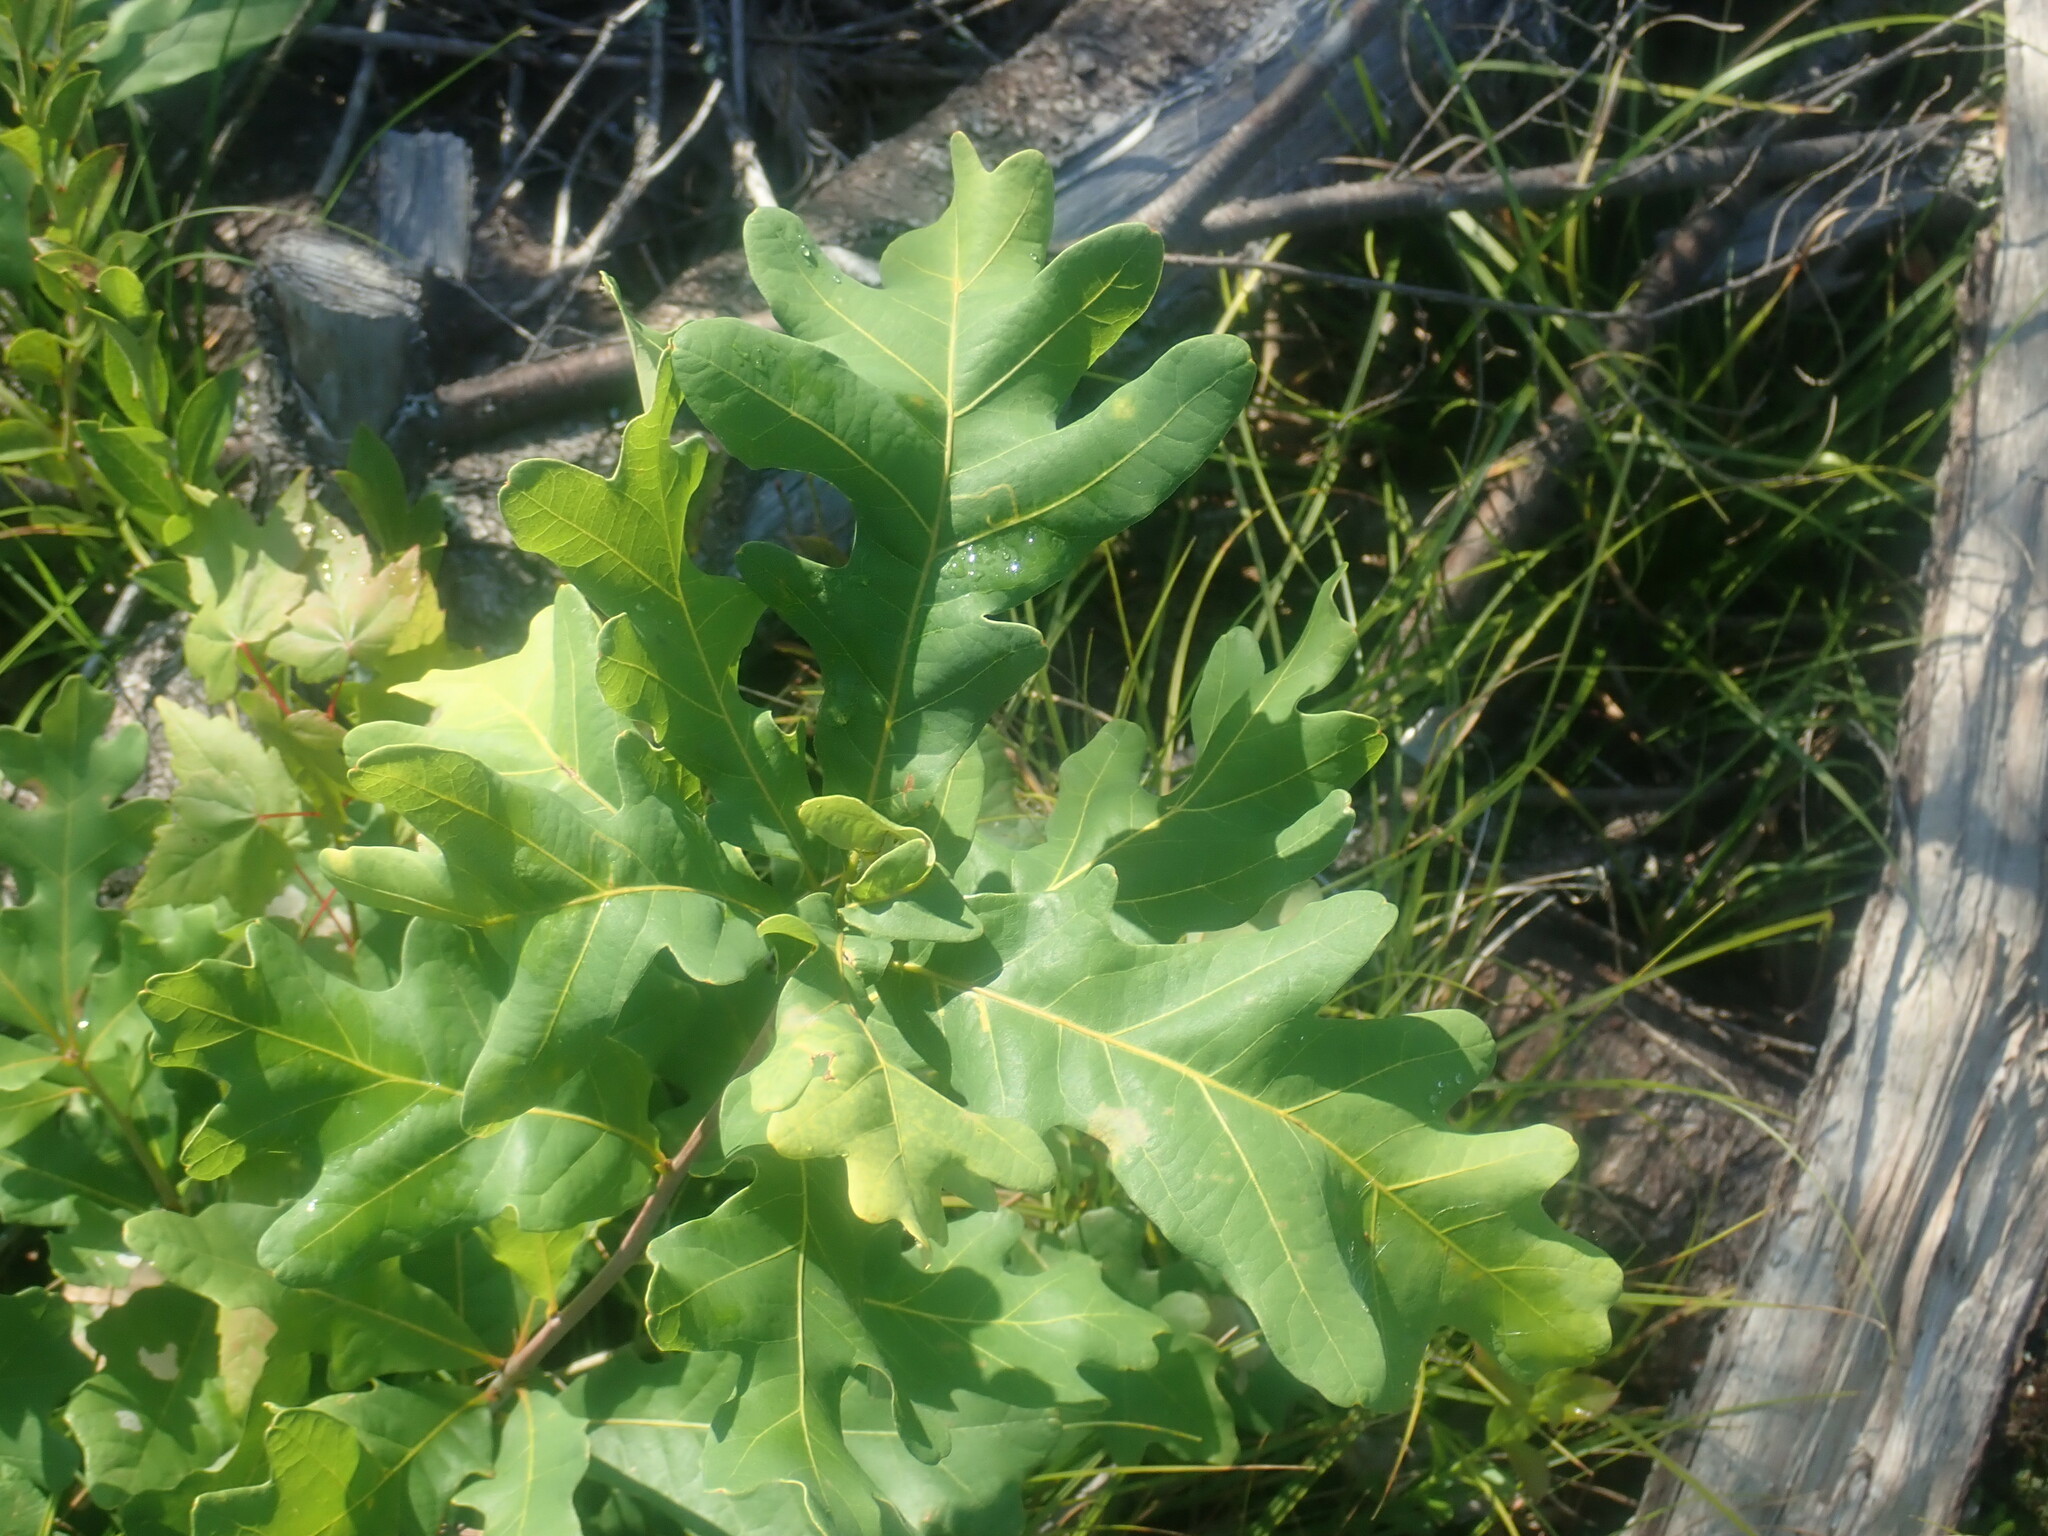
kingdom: Plantae
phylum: Tracheophyta
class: Magnoliopsida
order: Fagales
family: Fagaceae
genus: Quercus
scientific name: Quercus alba
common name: White oak
